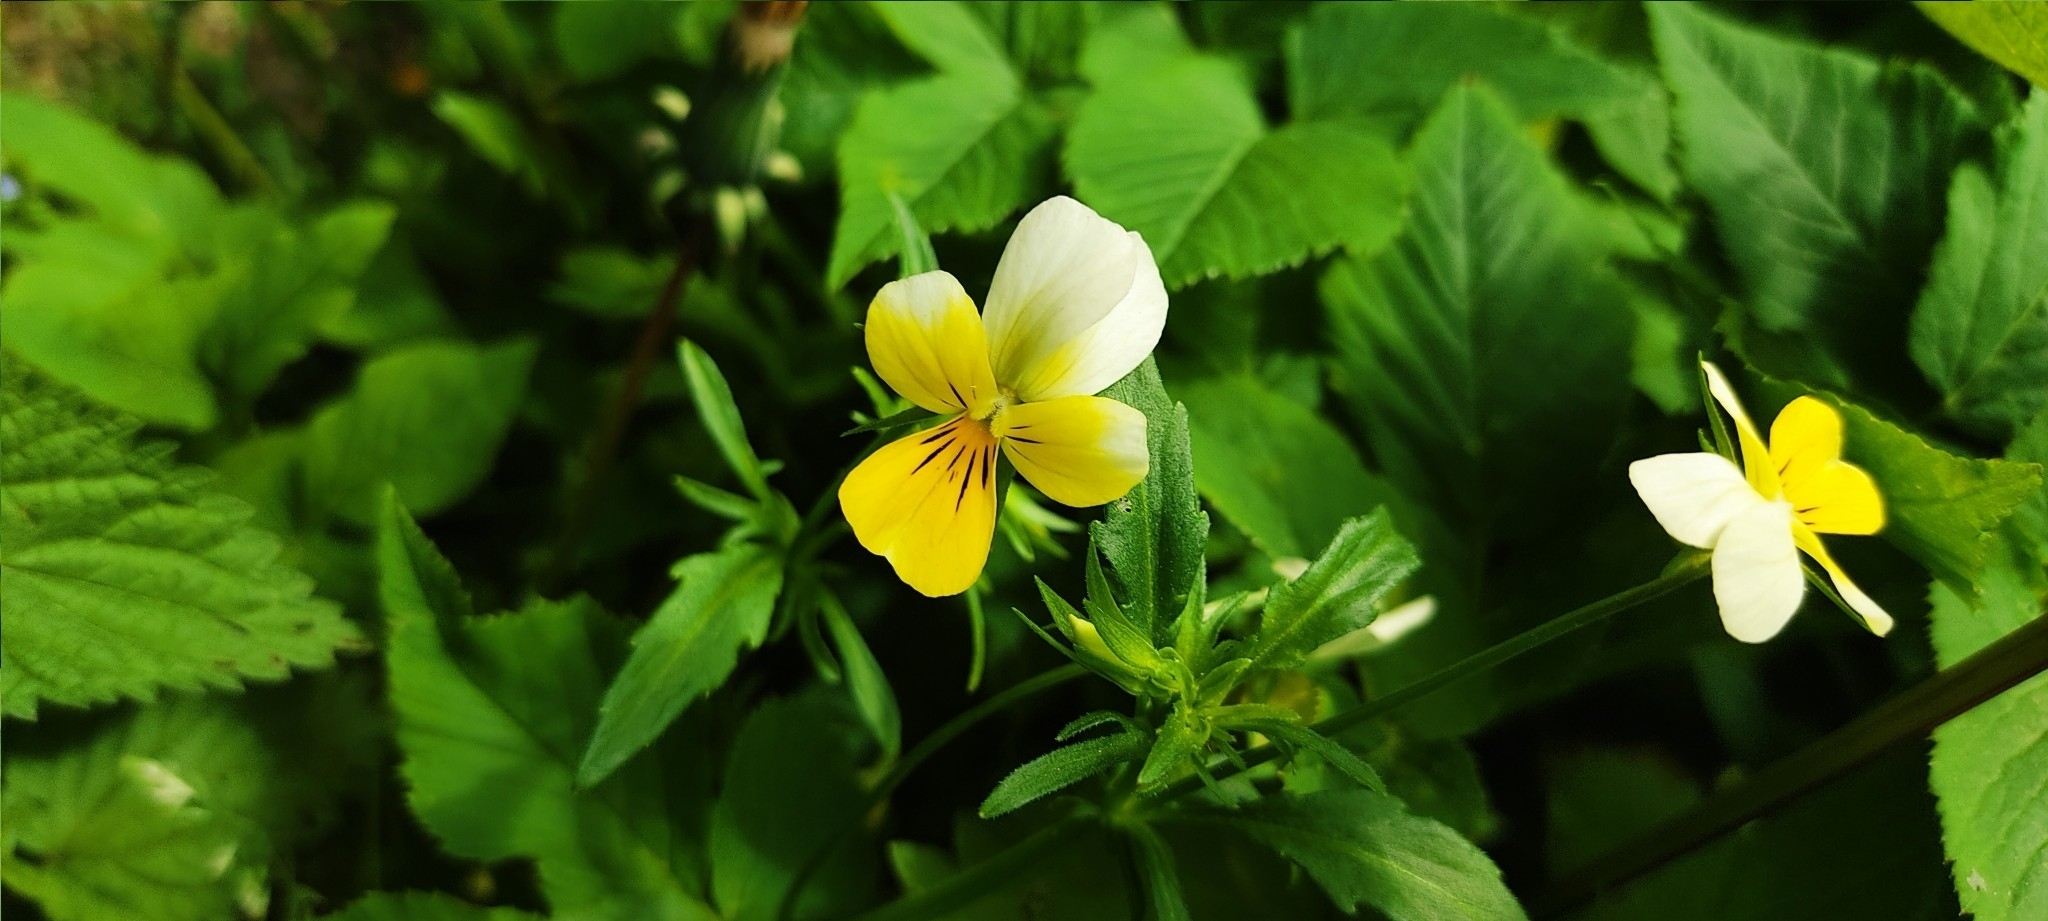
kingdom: Plantae
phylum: Tracheophyta
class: Magnoliopsida
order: Malpighiales
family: Violaceae
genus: Viola
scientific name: Viola tricolor
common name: Pansy
